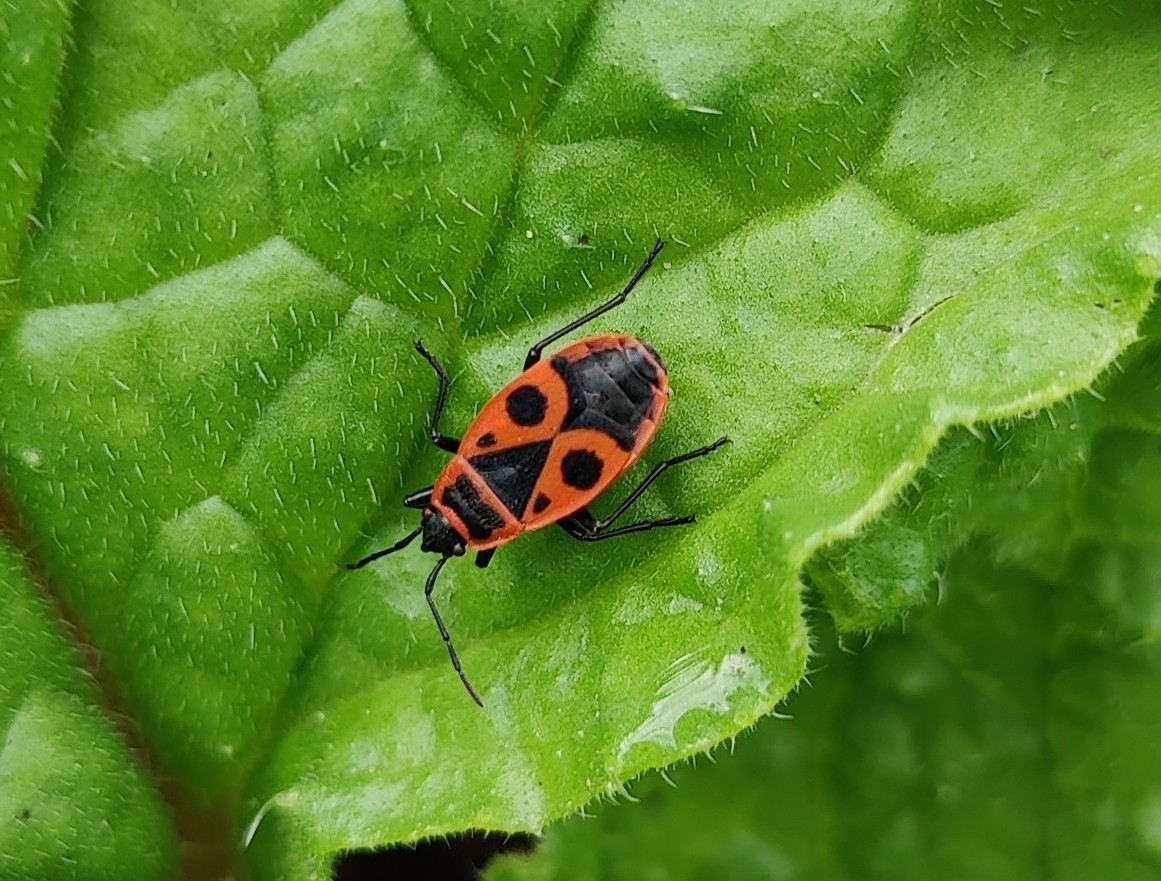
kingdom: Animalia
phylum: Arthropoda
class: Insecta
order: Hemiptera
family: Pyrrhocoridae
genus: Pyrrhocoris
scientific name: Pyrrhocoris apterus
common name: Firebug
